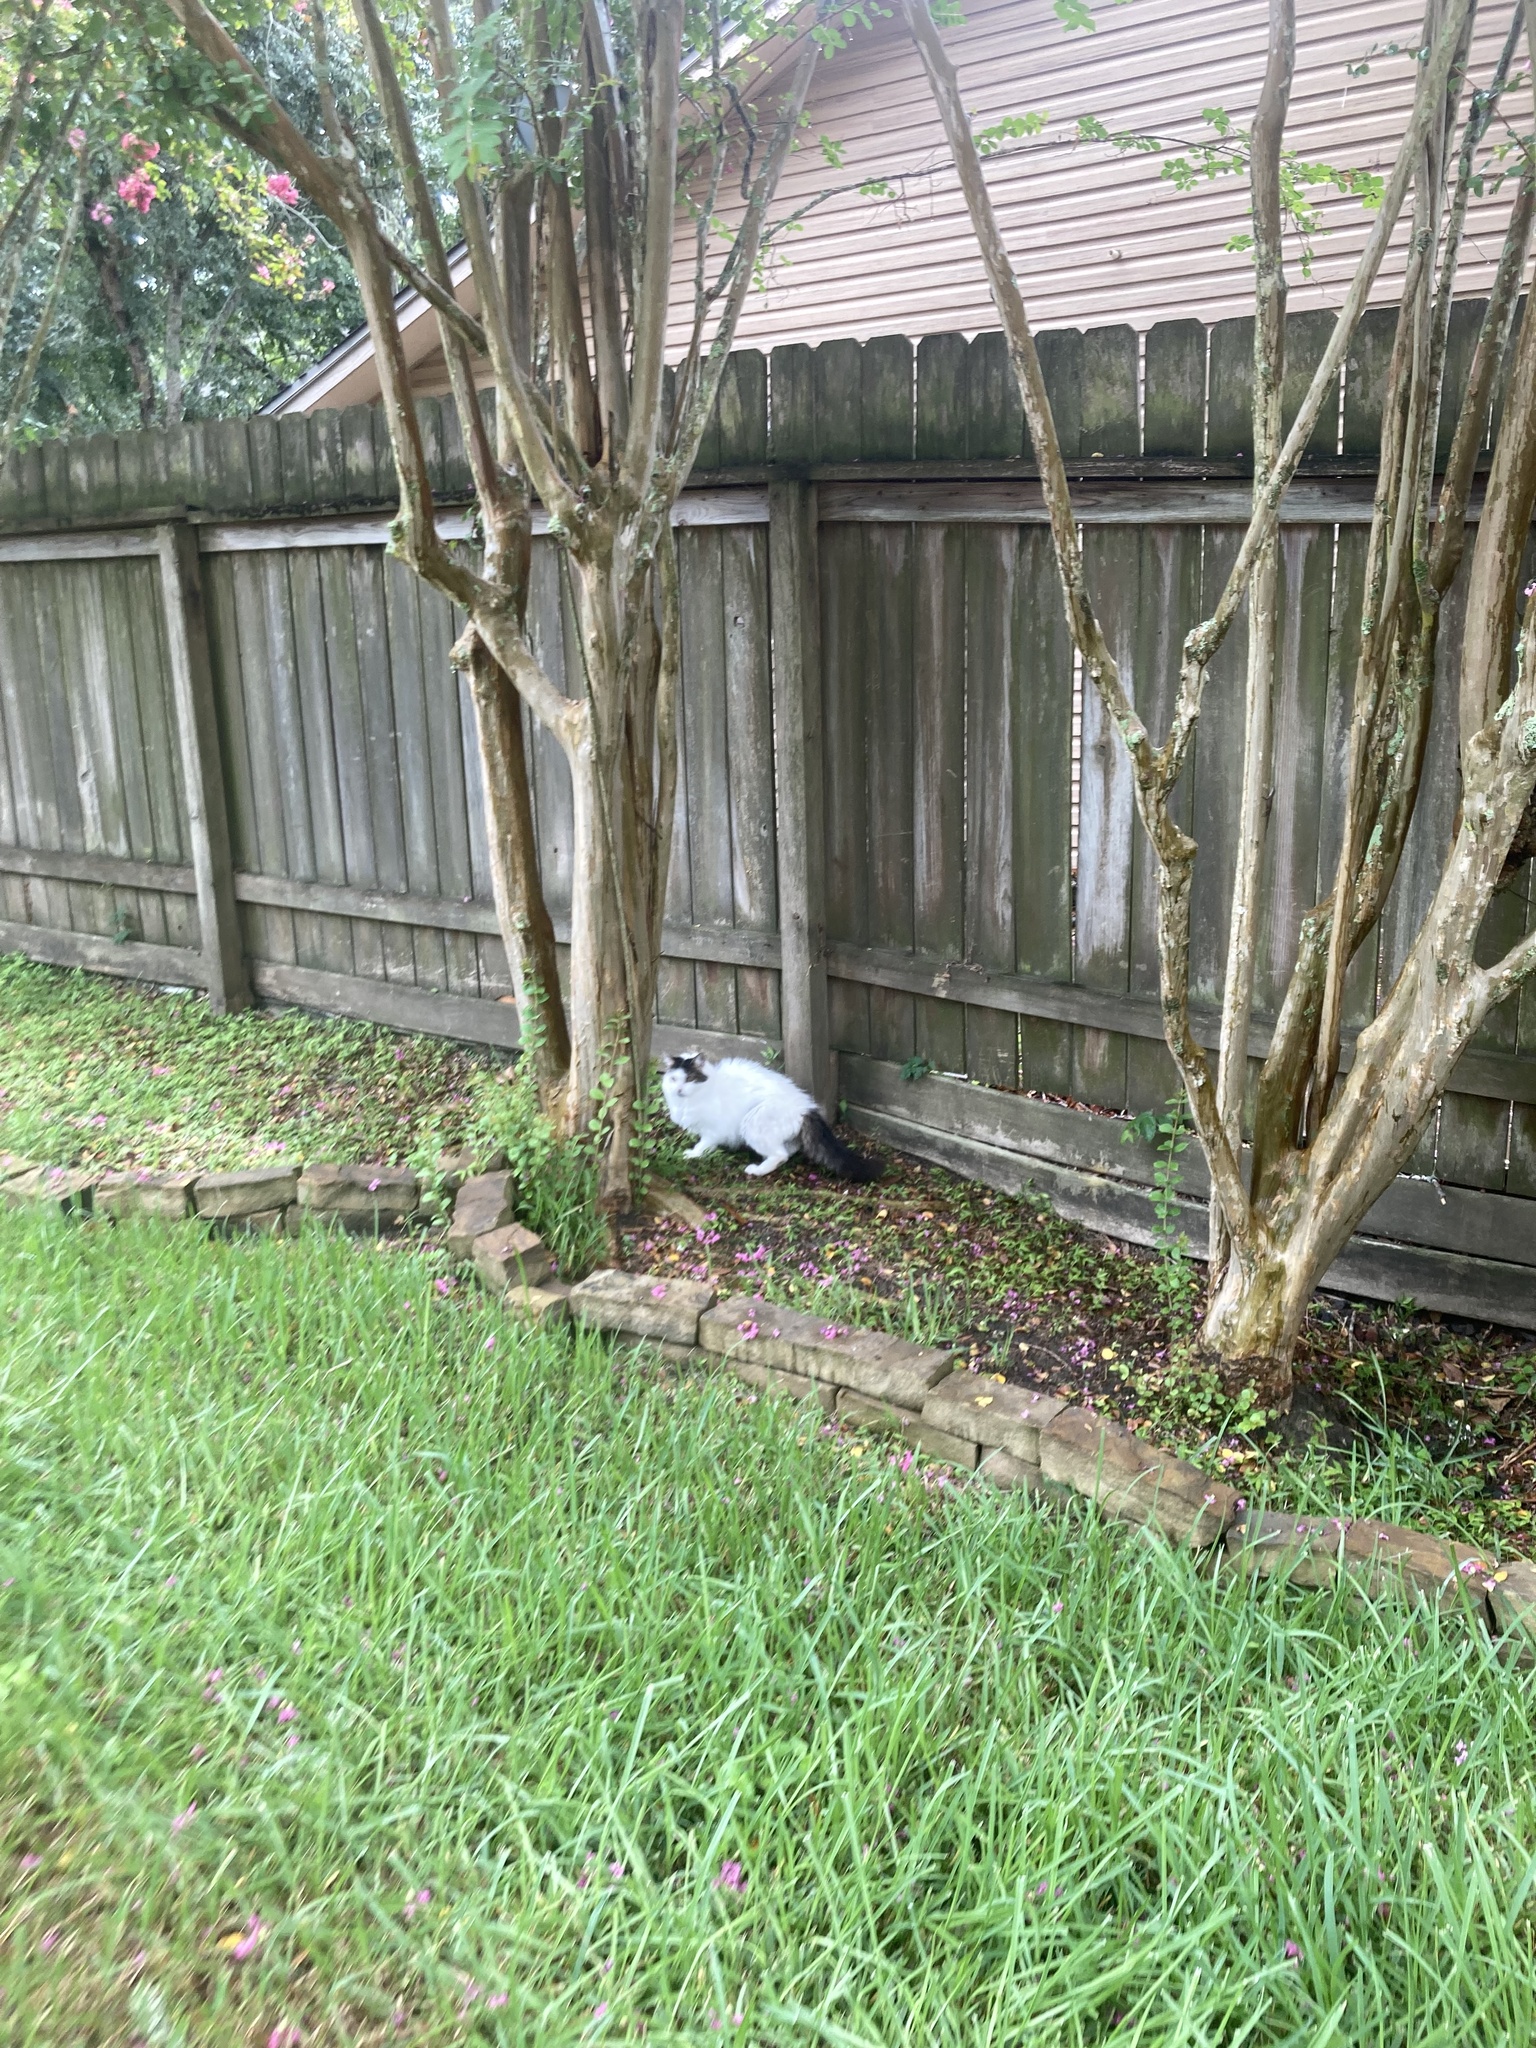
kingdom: Animalia
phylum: Chordata
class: Mammalia
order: Carnivora
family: Felidae
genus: Felis
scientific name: Felis catus
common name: Domestic cat
